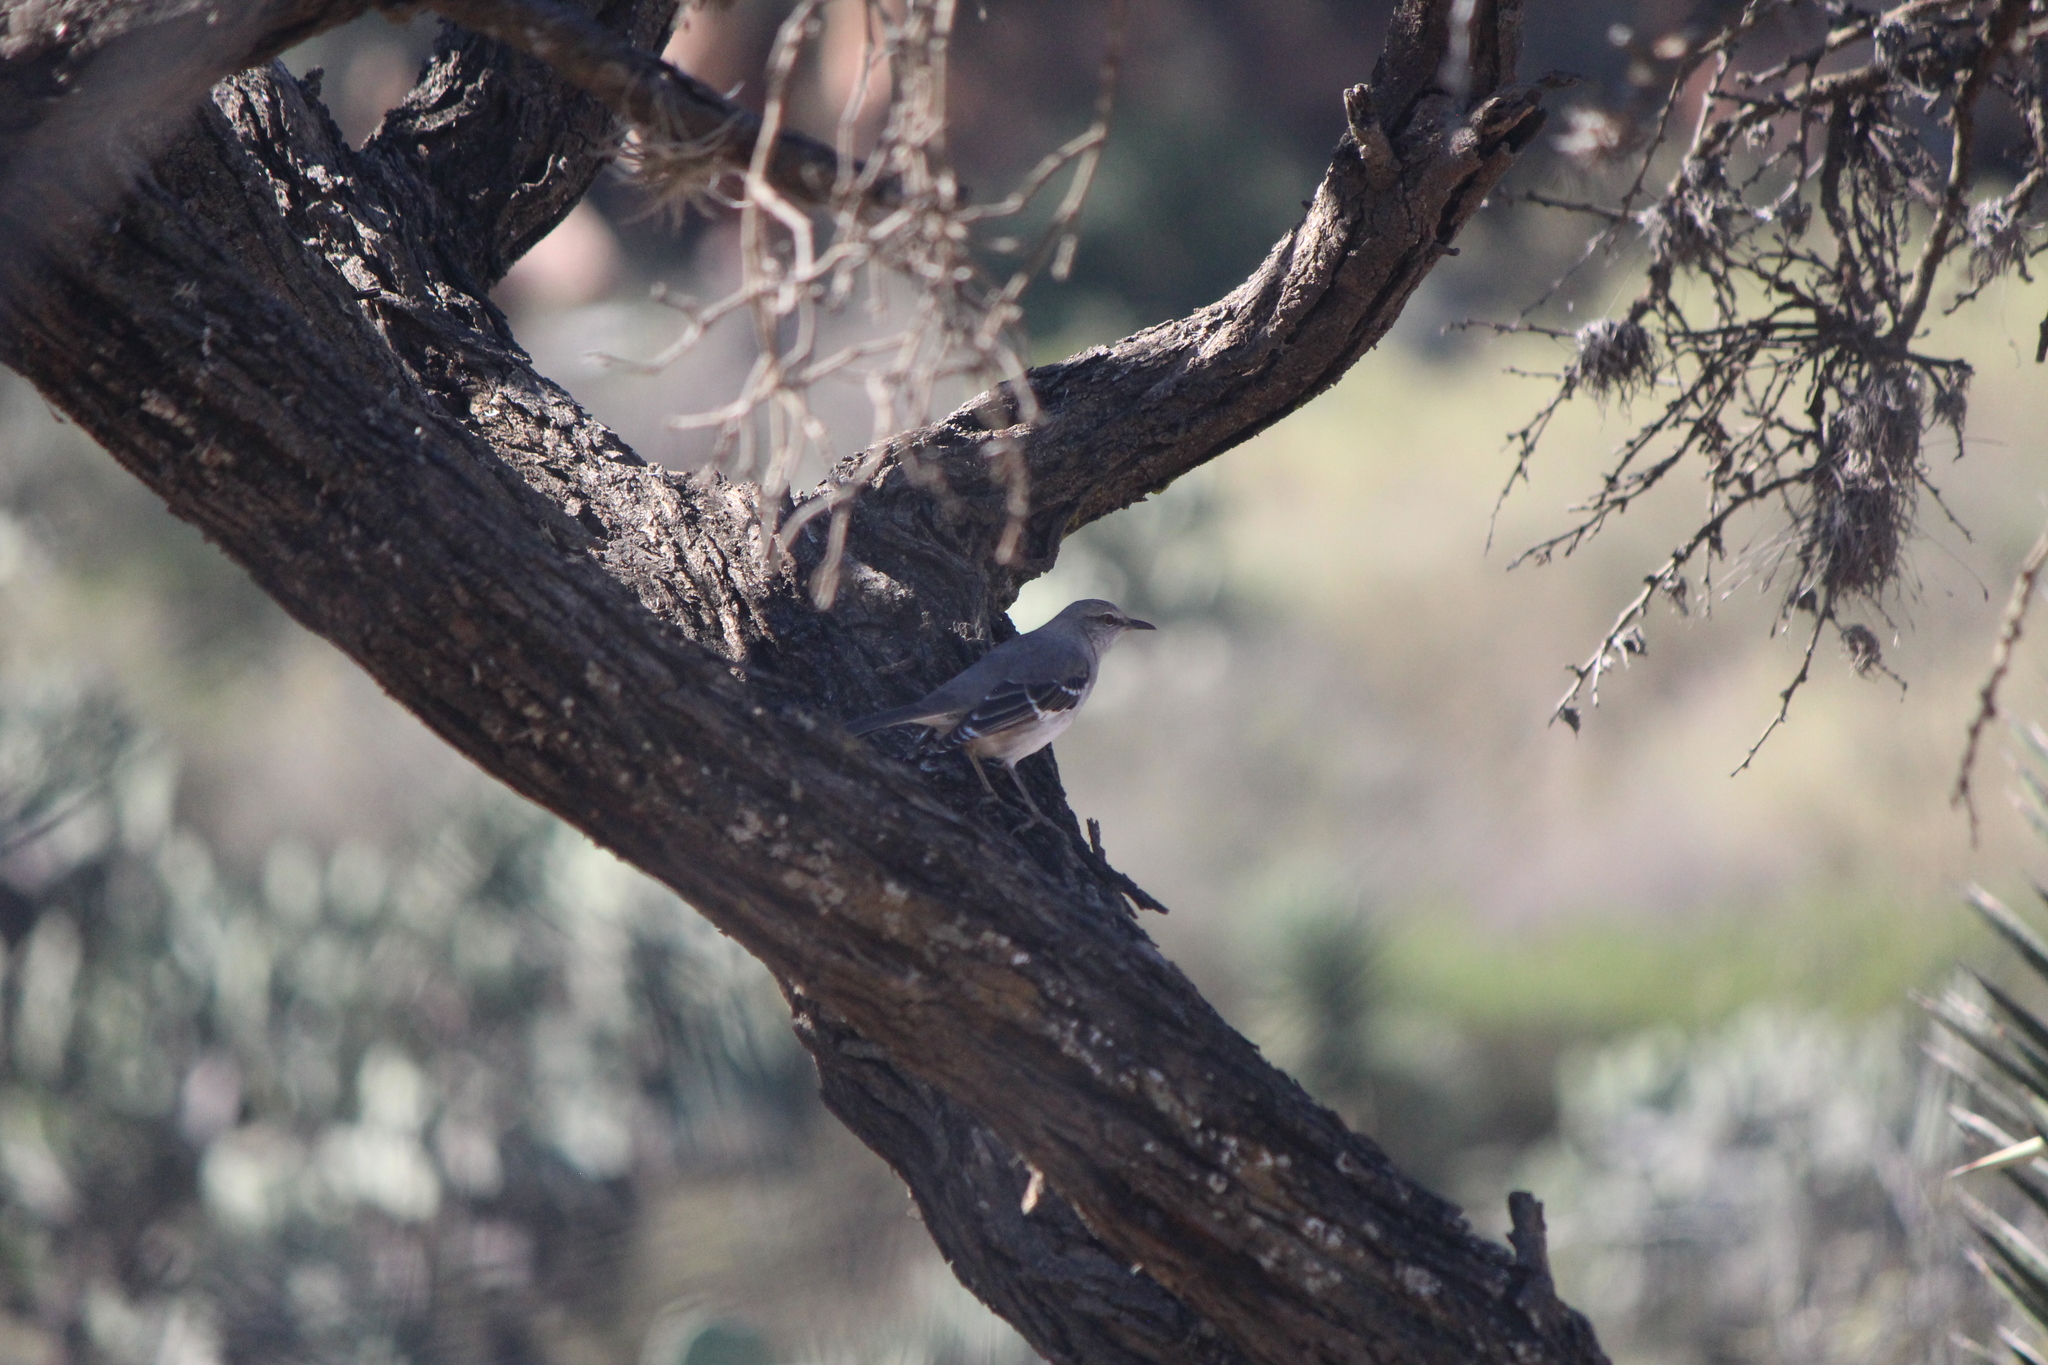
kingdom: Animalia
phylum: Chordata
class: Aves
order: Passeriformes
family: Mimidae
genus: Mimus
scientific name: Mimus polyglottos
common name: Northern mockingbird
